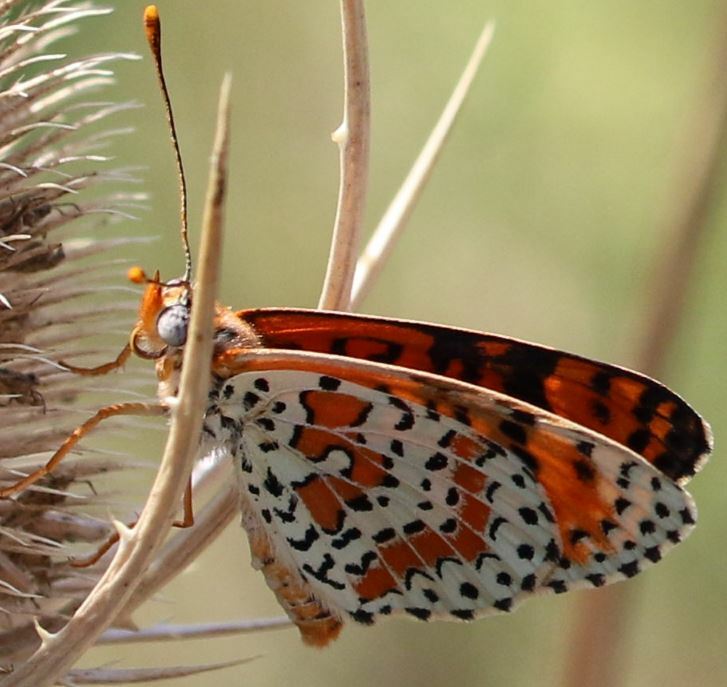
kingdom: Animalia
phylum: Arthropoda
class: Insecta
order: Lepidoptera
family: Nymphalidae
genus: Melitaea
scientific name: Melitaea didyma
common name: Spotted fritillary
